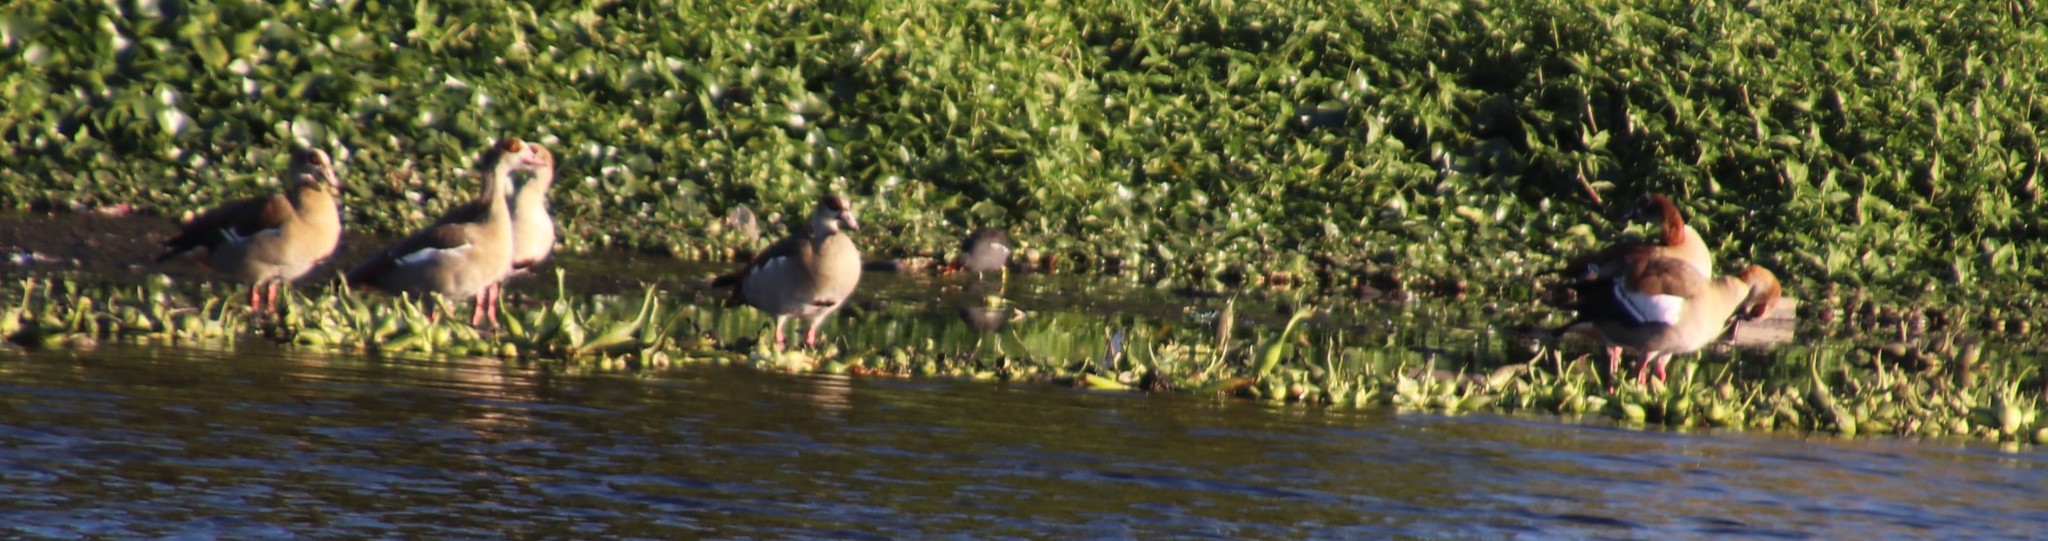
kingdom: Animalia
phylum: Chordata
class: Aves
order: Anseriformes
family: Anatidae
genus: Alopochen
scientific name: Alopochen aegyptiaca
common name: Egyptian goose
